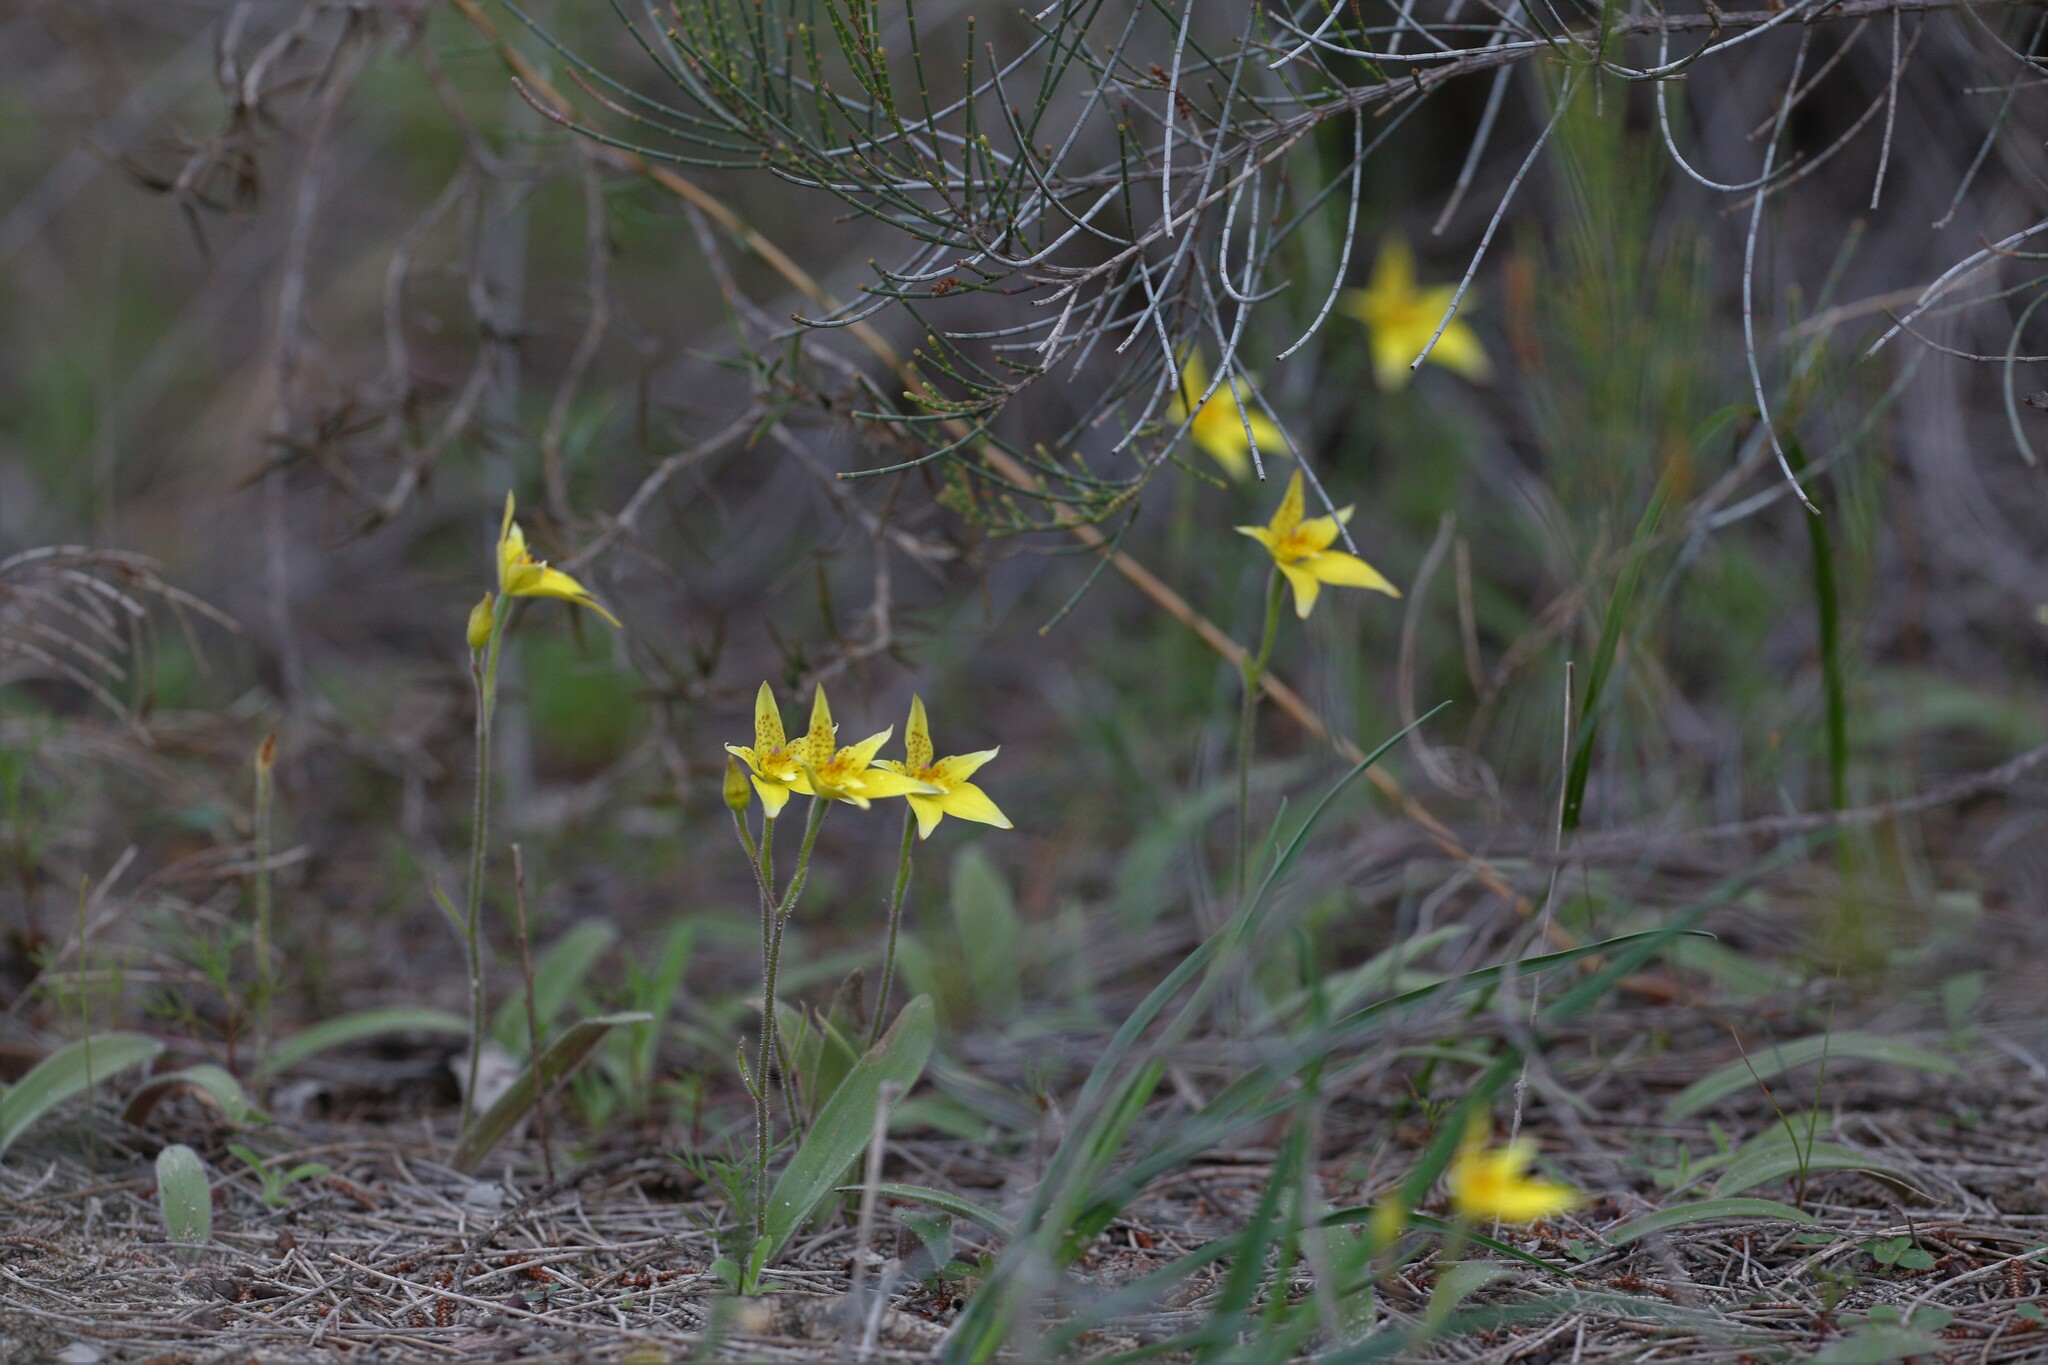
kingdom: Plantae
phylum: Tracheophyta
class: Liliopsida
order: Asparagales
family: Orchidaceae
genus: Caladenia
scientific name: Caladenia flava
